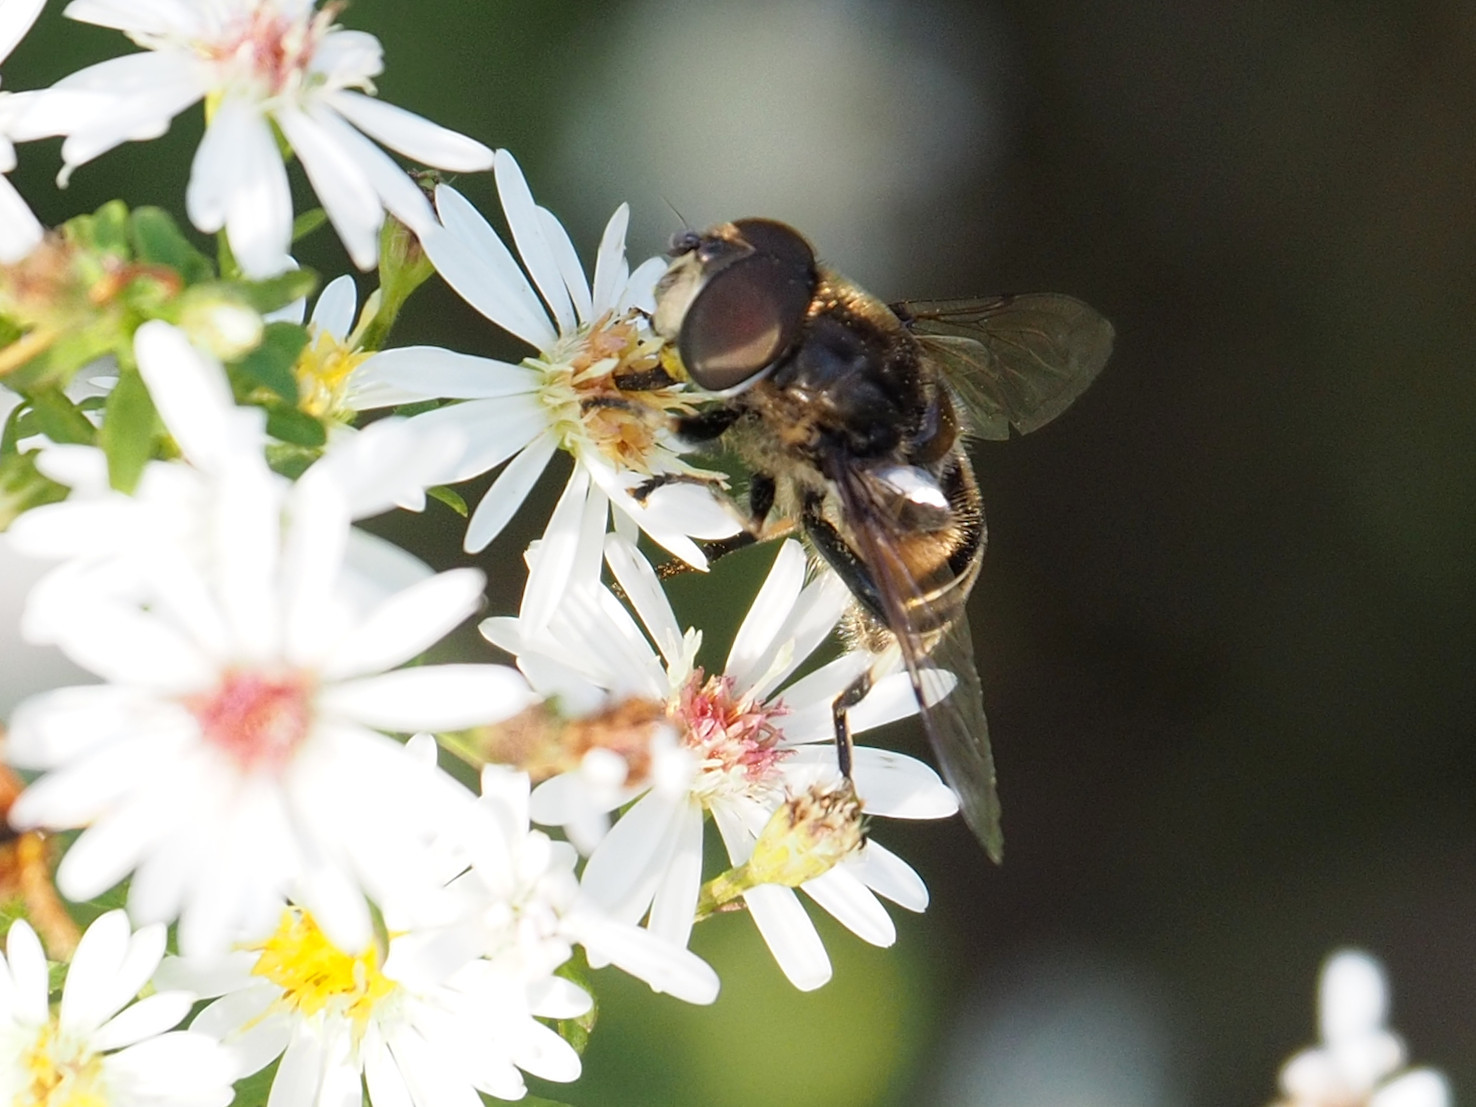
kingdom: Animalia
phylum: Arthropoda
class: Insecta
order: Diptera
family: Syrphidae
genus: Eristalis
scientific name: Eristalis dimidiata
